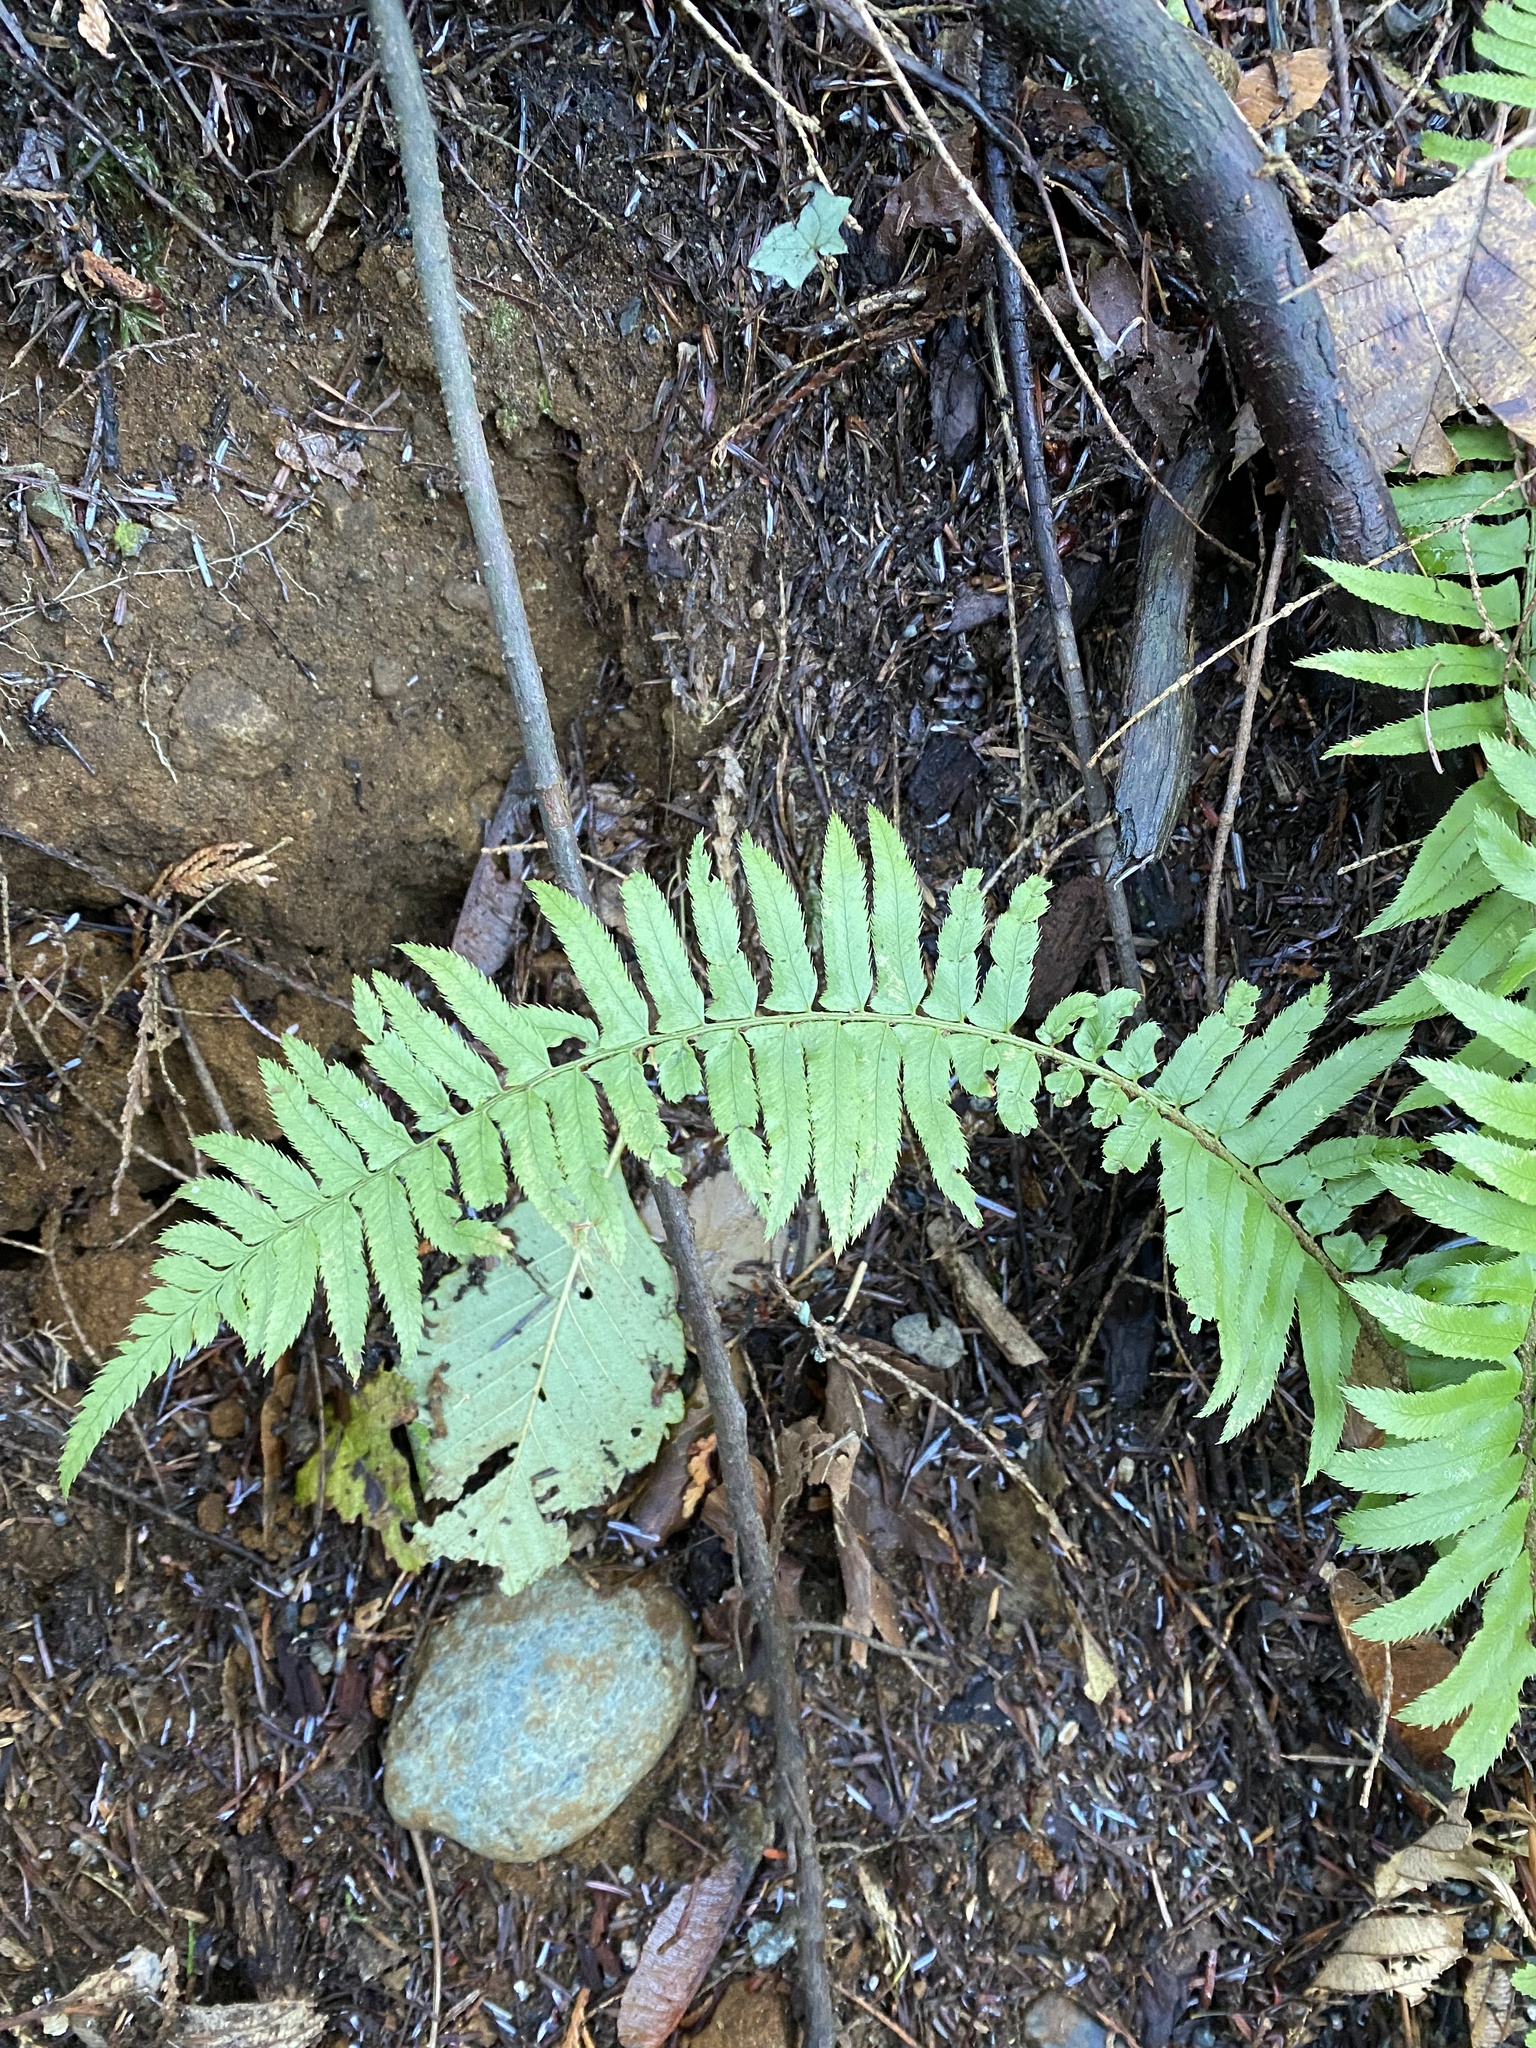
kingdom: Plantae
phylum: Tracheophyta
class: Polypodiopsida
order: Polypodiales
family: Dryopteridaceae
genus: Polystichum
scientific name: Polystichum munitum
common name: Western sword-fern
